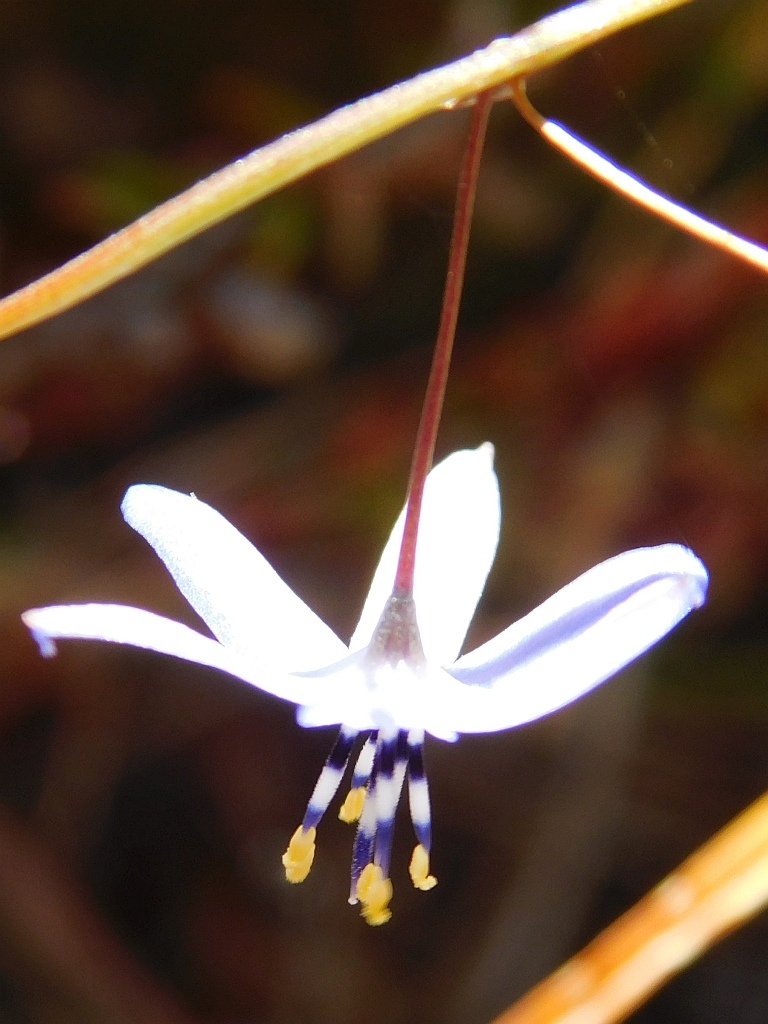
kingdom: Plantae
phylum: Tracheophyta
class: Liliopsida
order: Asparagales
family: Asphodelaceae
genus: Caesia
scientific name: Caesia contorta
